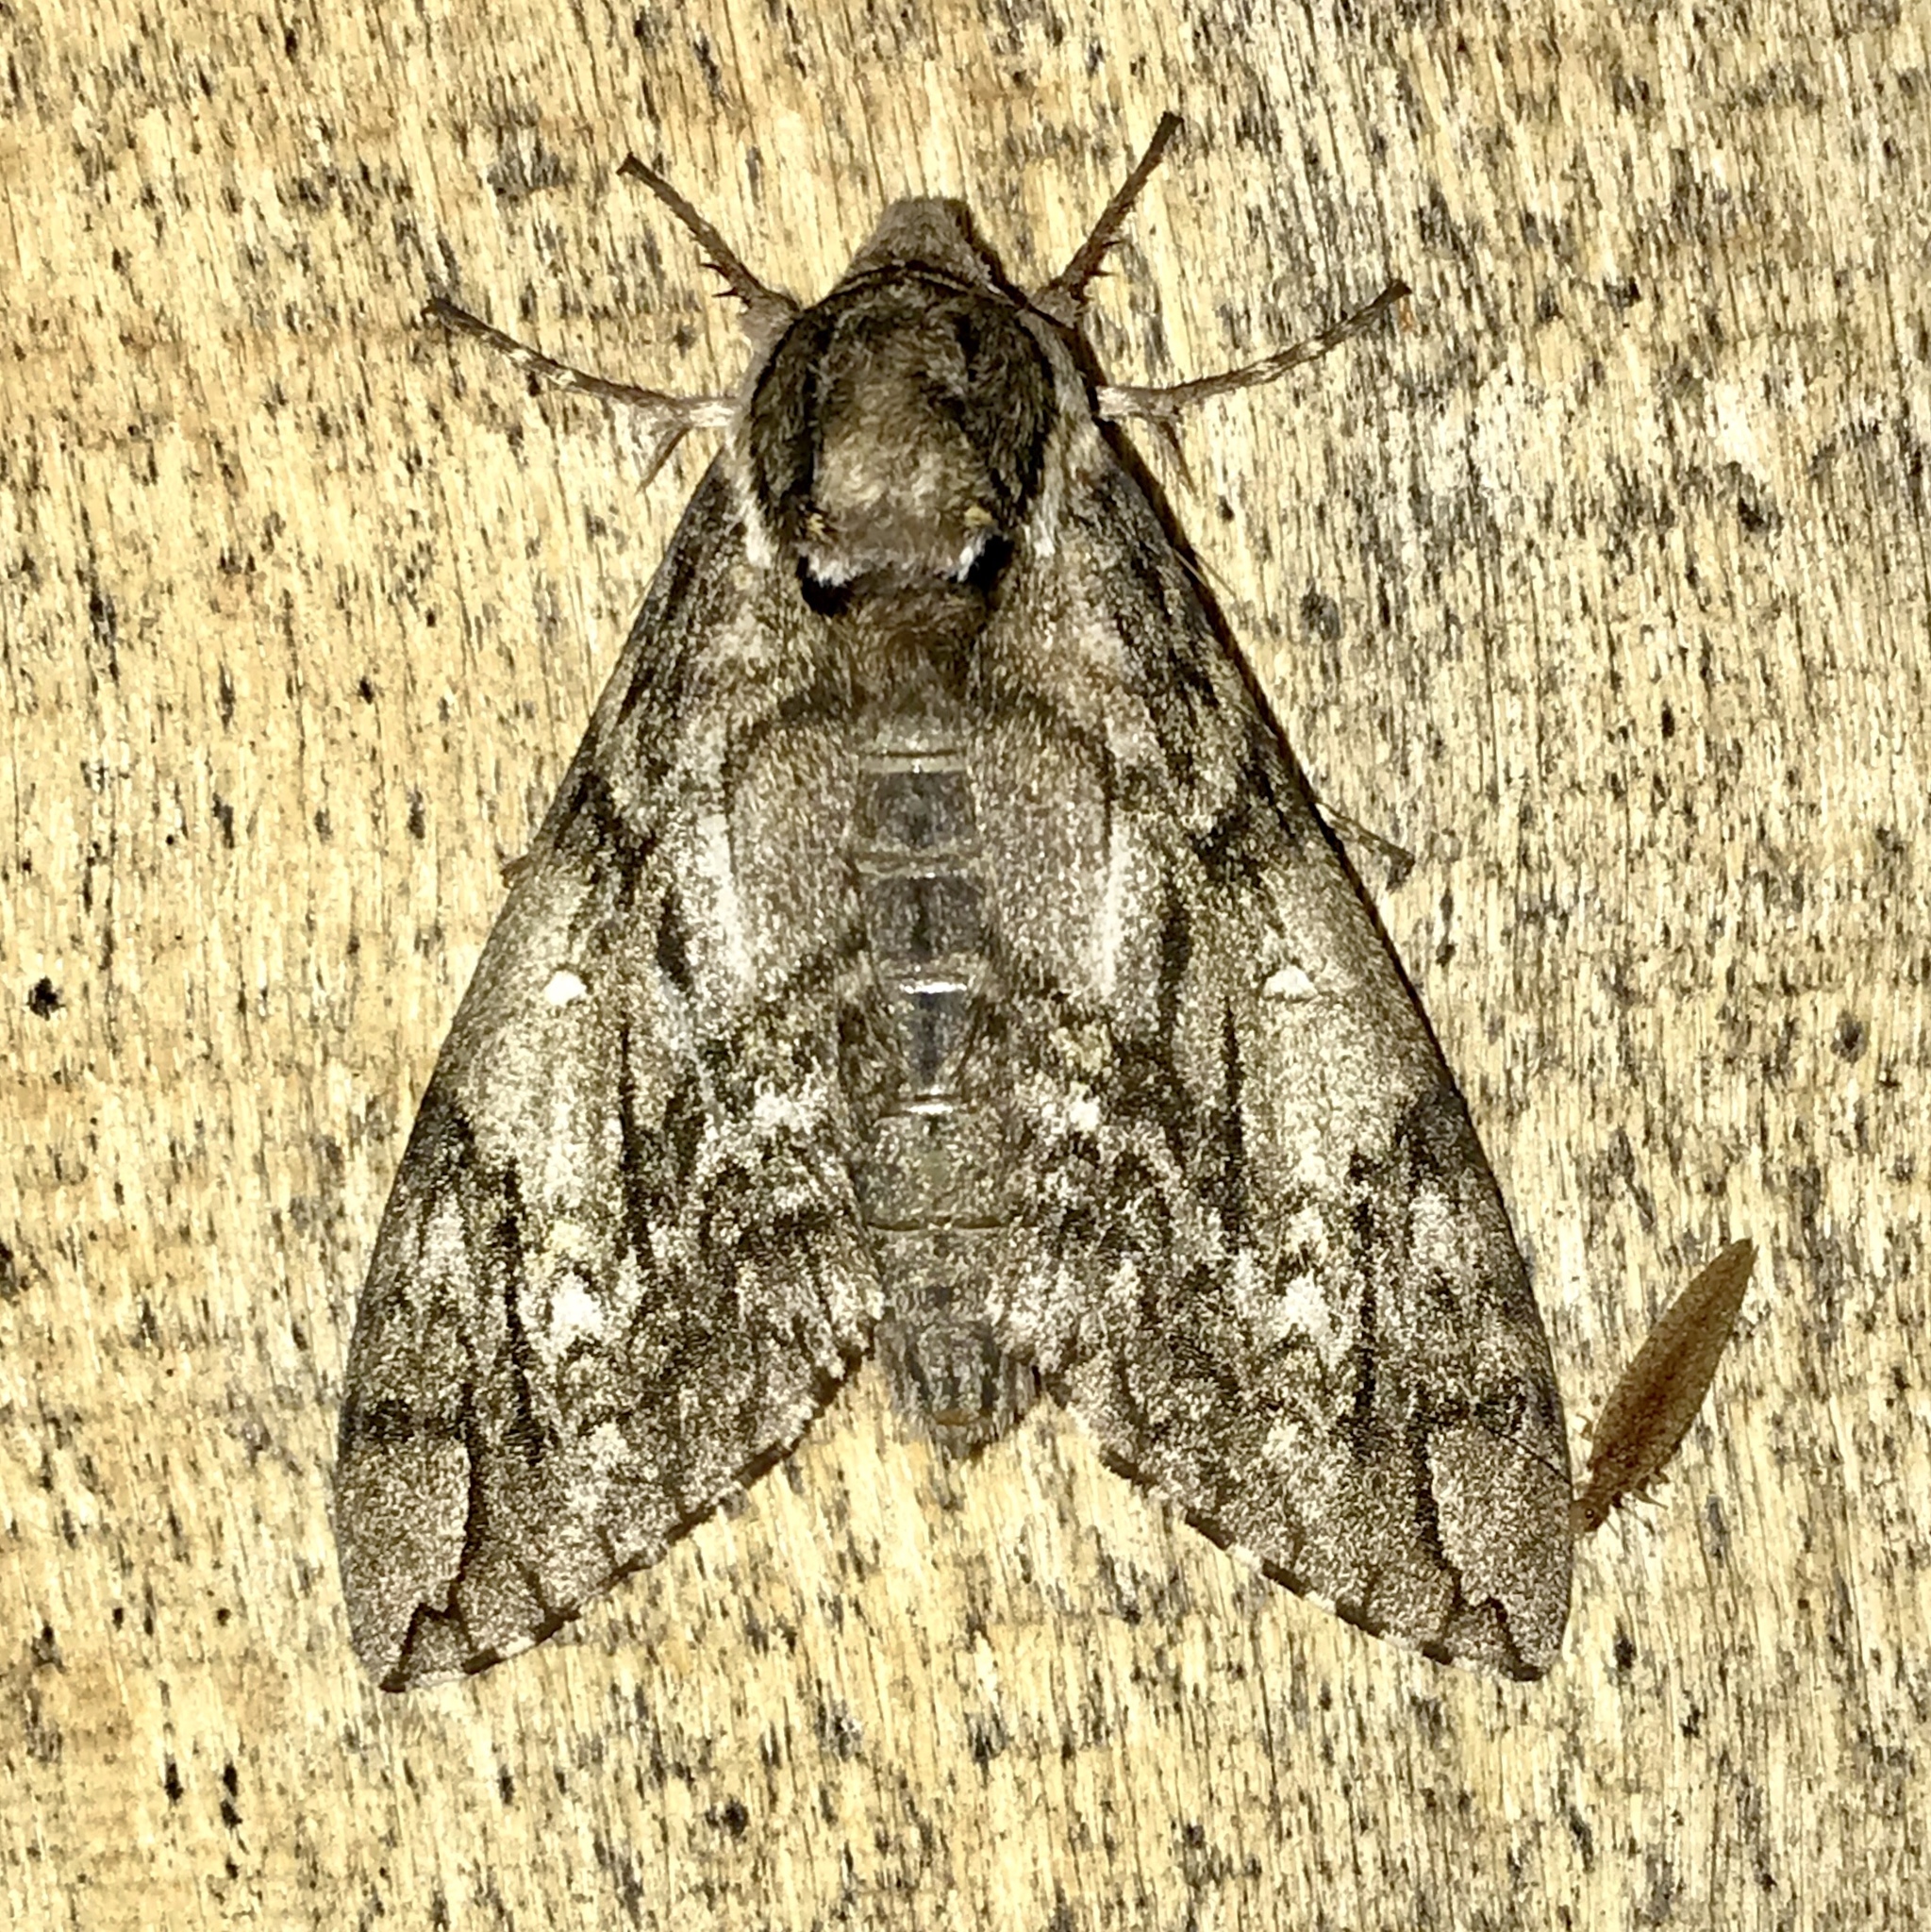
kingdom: Animalia
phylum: Arthropoda
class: Insecta
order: Lepidoptera
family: Sphingidae
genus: Ceratomia
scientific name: Ceratomia undulosa
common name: Waved sphinx
